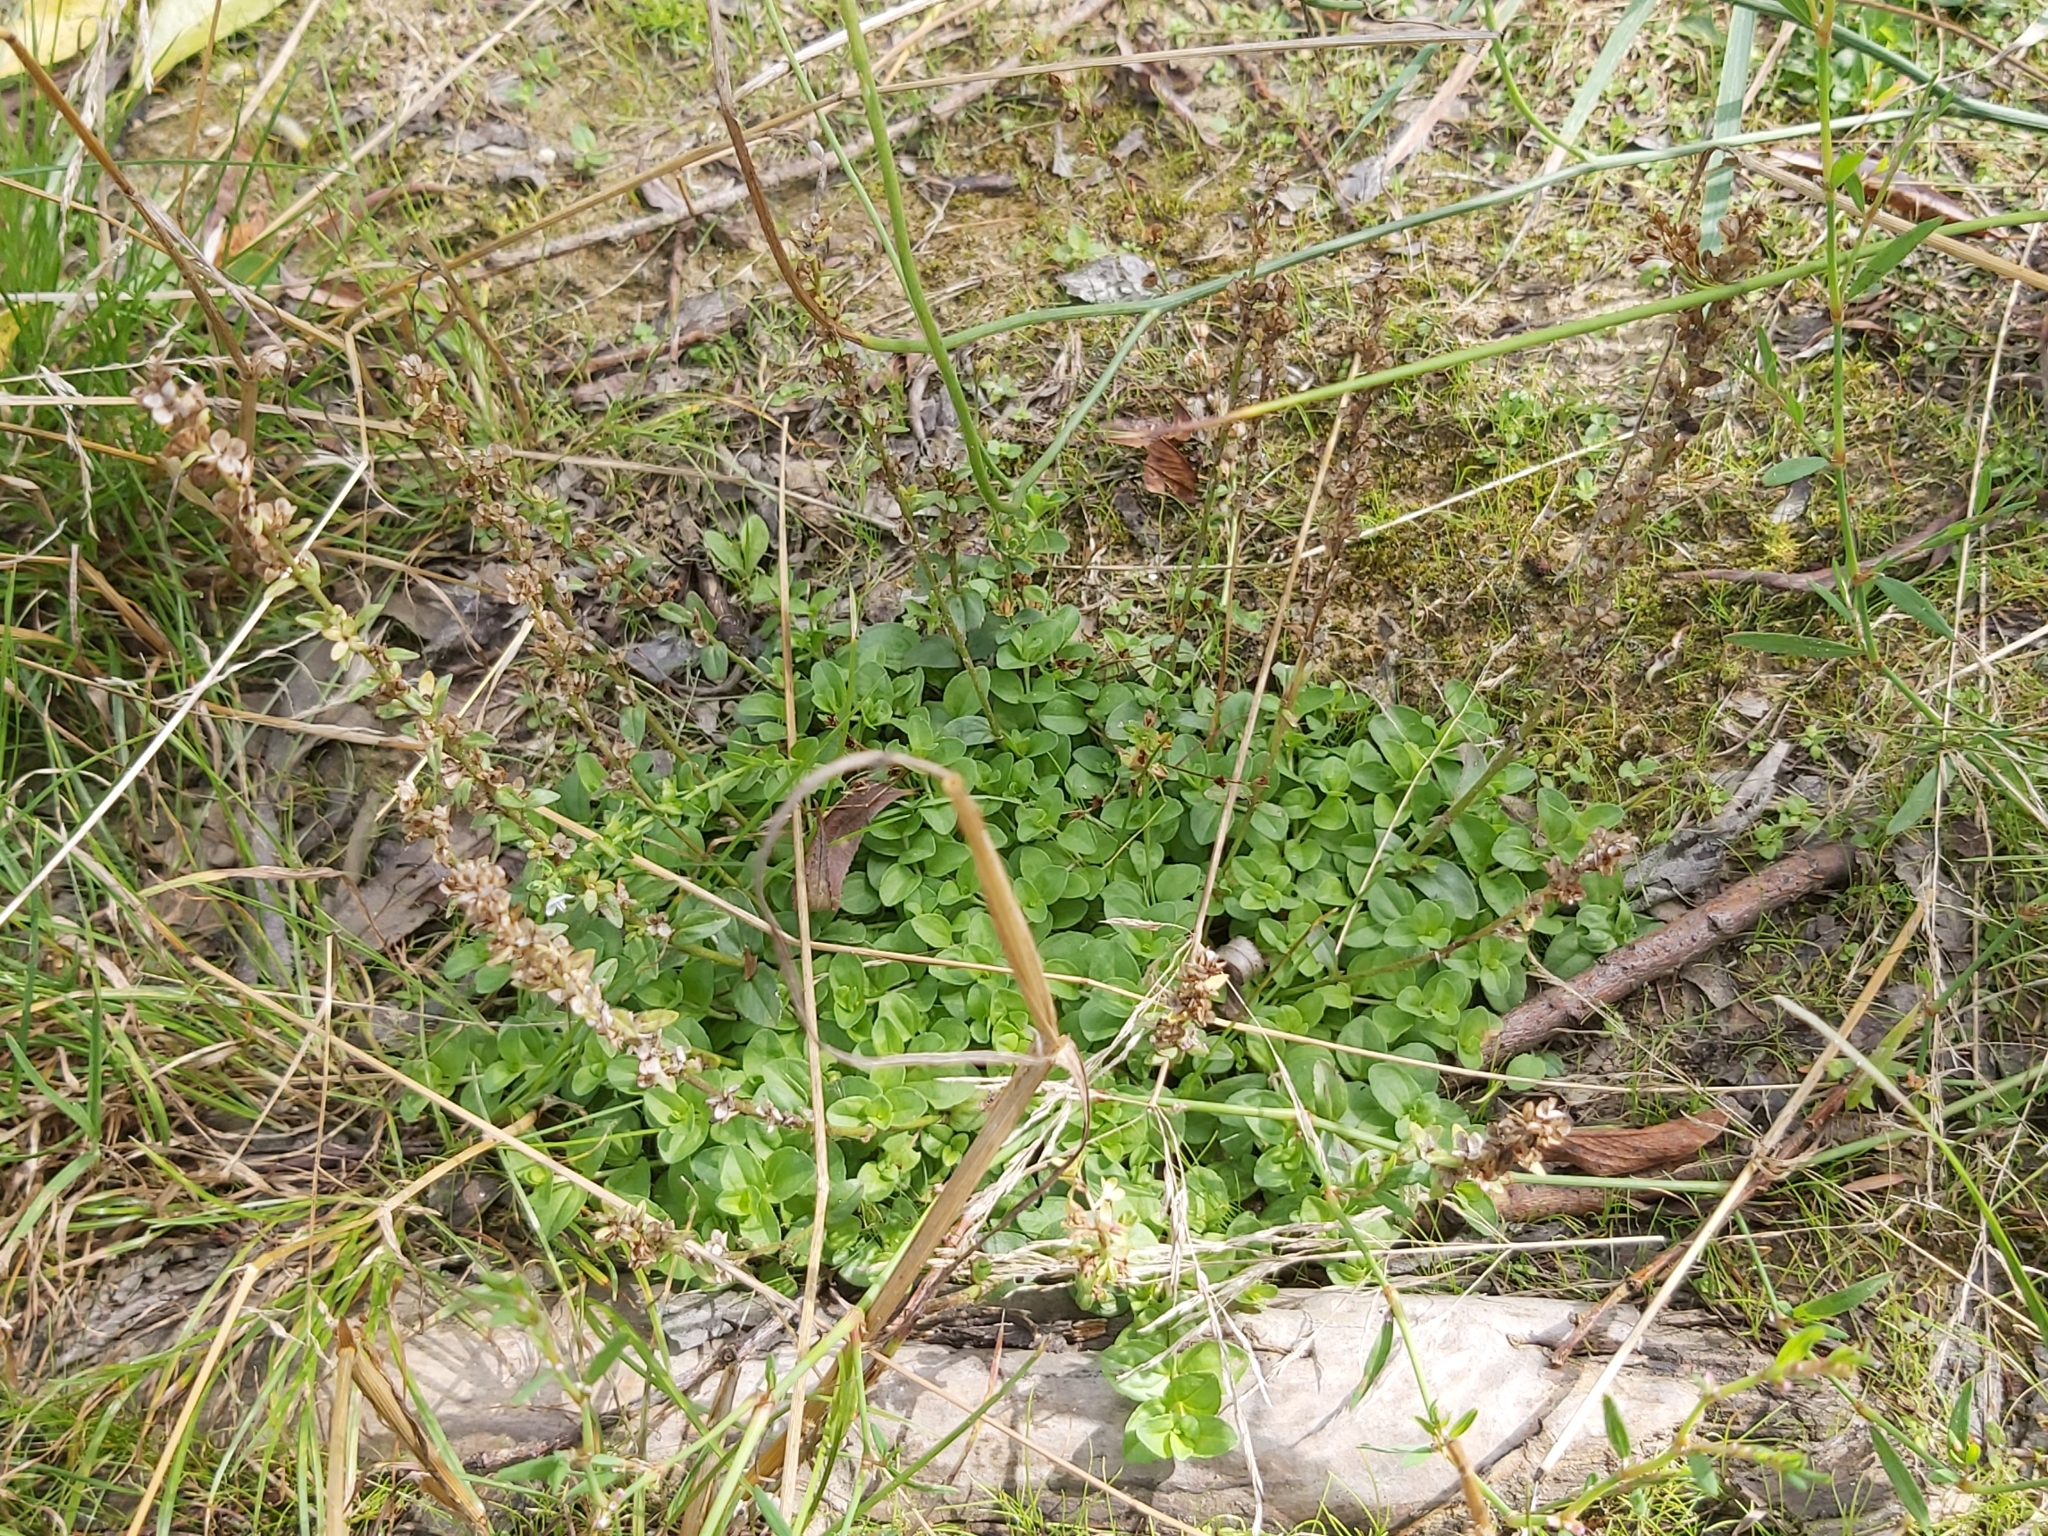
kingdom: Plantae
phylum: Tracheophyta
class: Magnoliopsida
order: Lamiales
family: Plantaginaceae
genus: Veronica
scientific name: Veronica serpyllifolia
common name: Thyme-leaved speedwell
